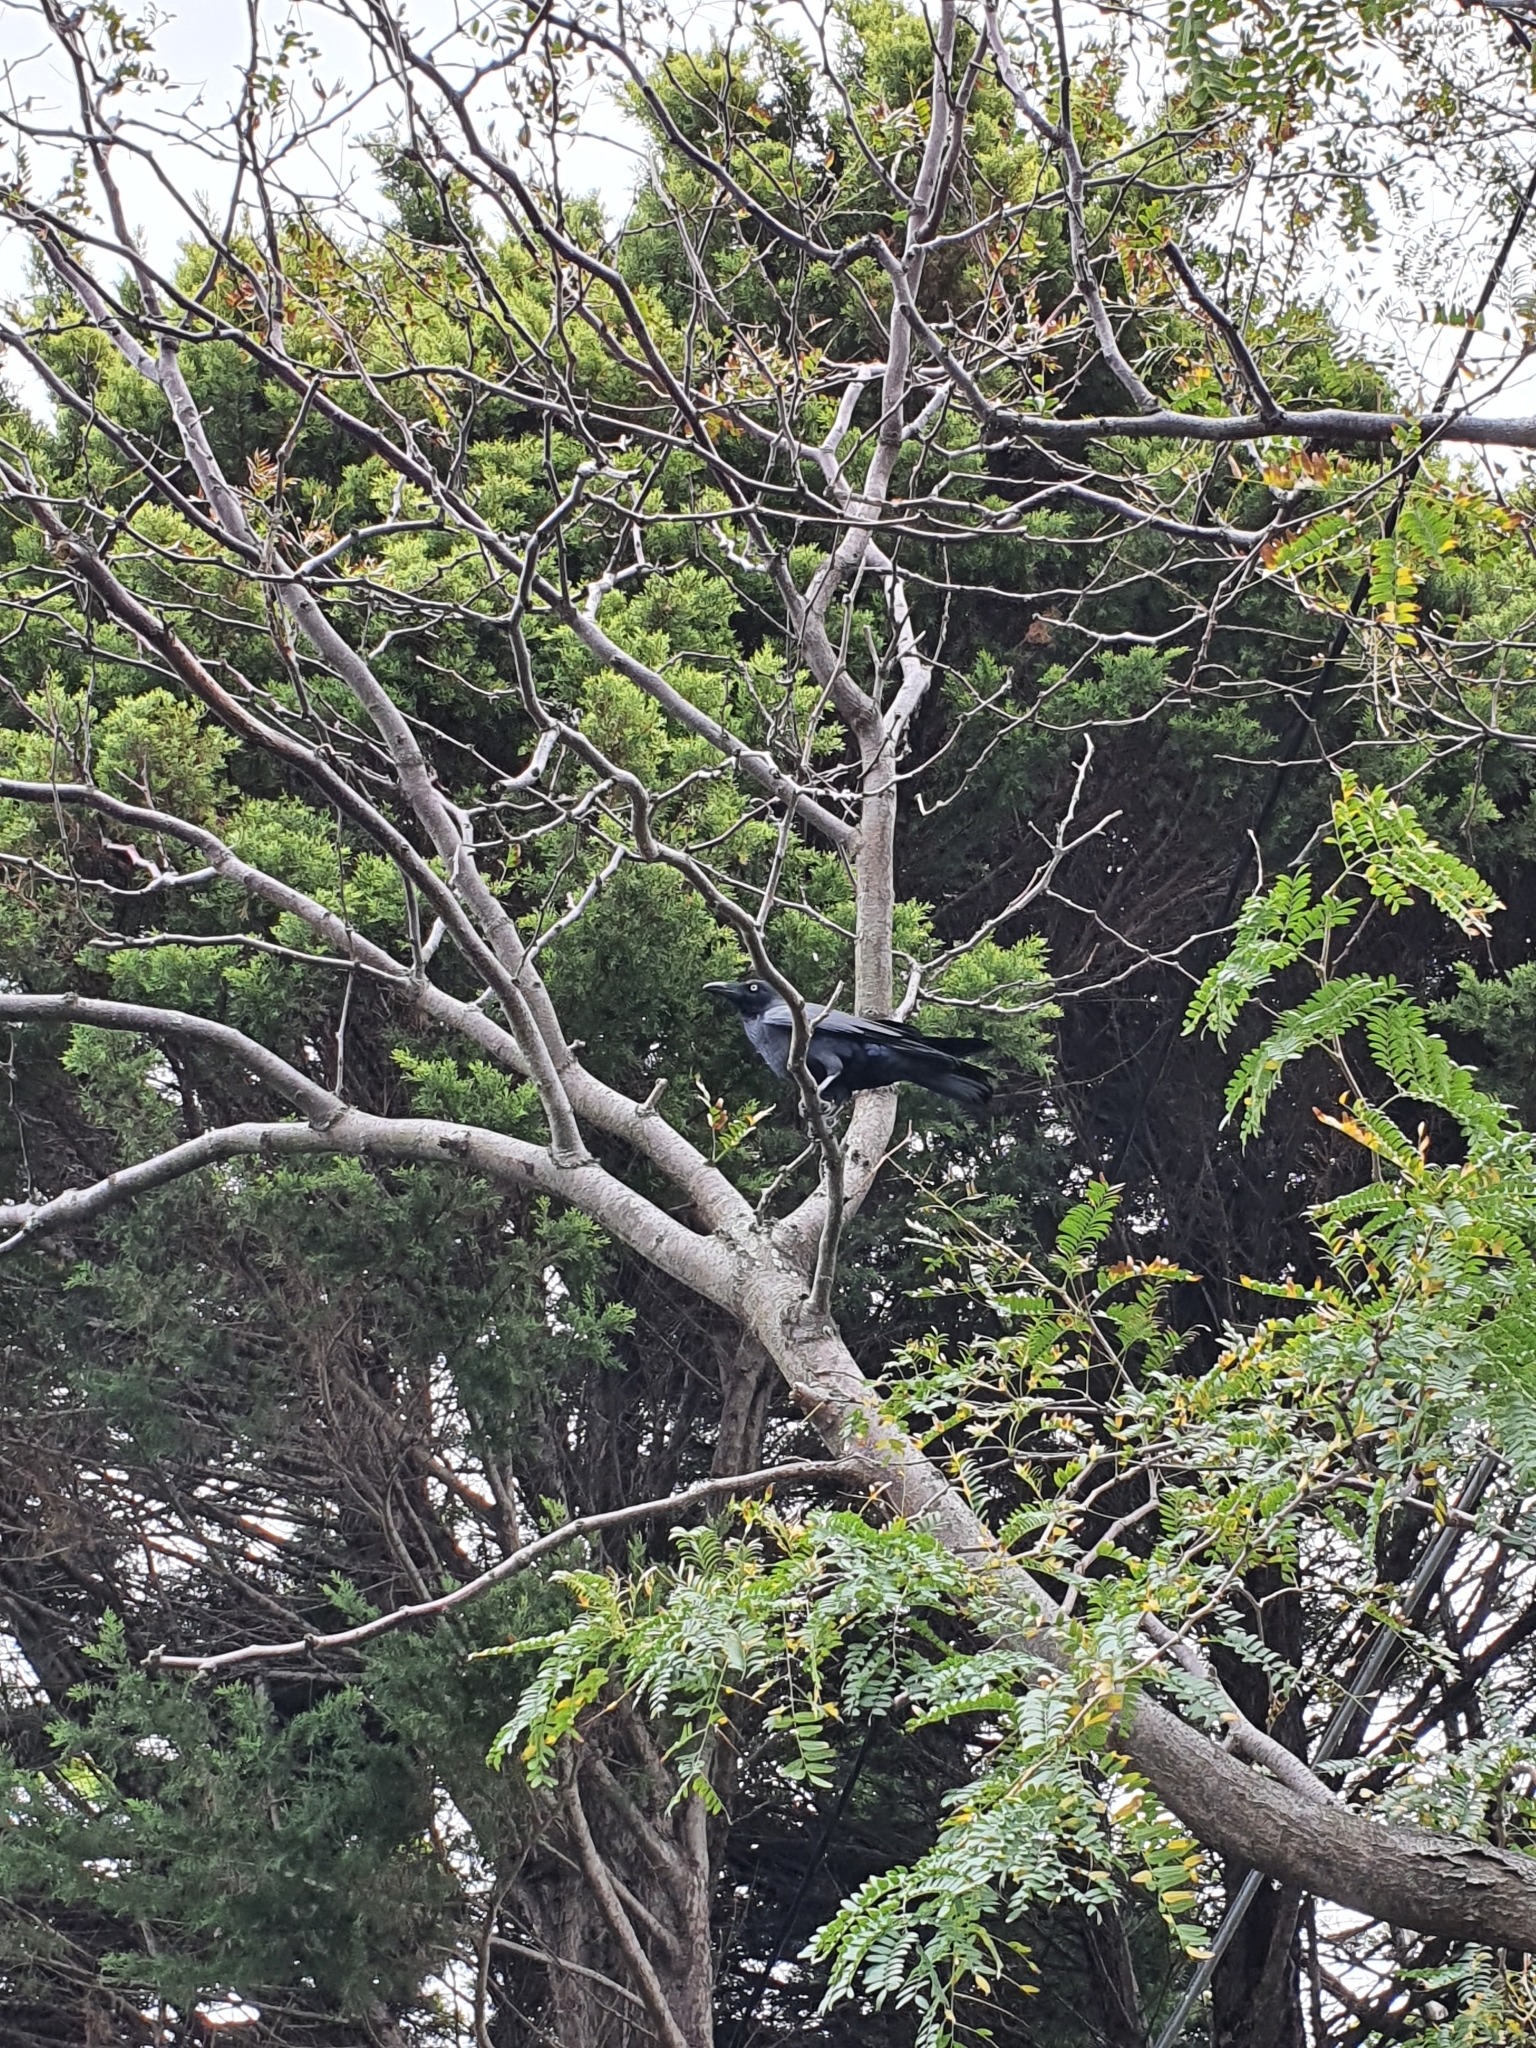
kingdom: Animalia
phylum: Chordata
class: Aves
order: Passeriformes
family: Corvidae
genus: Corvus
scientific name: Corvus coronoides
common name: Australian raven
